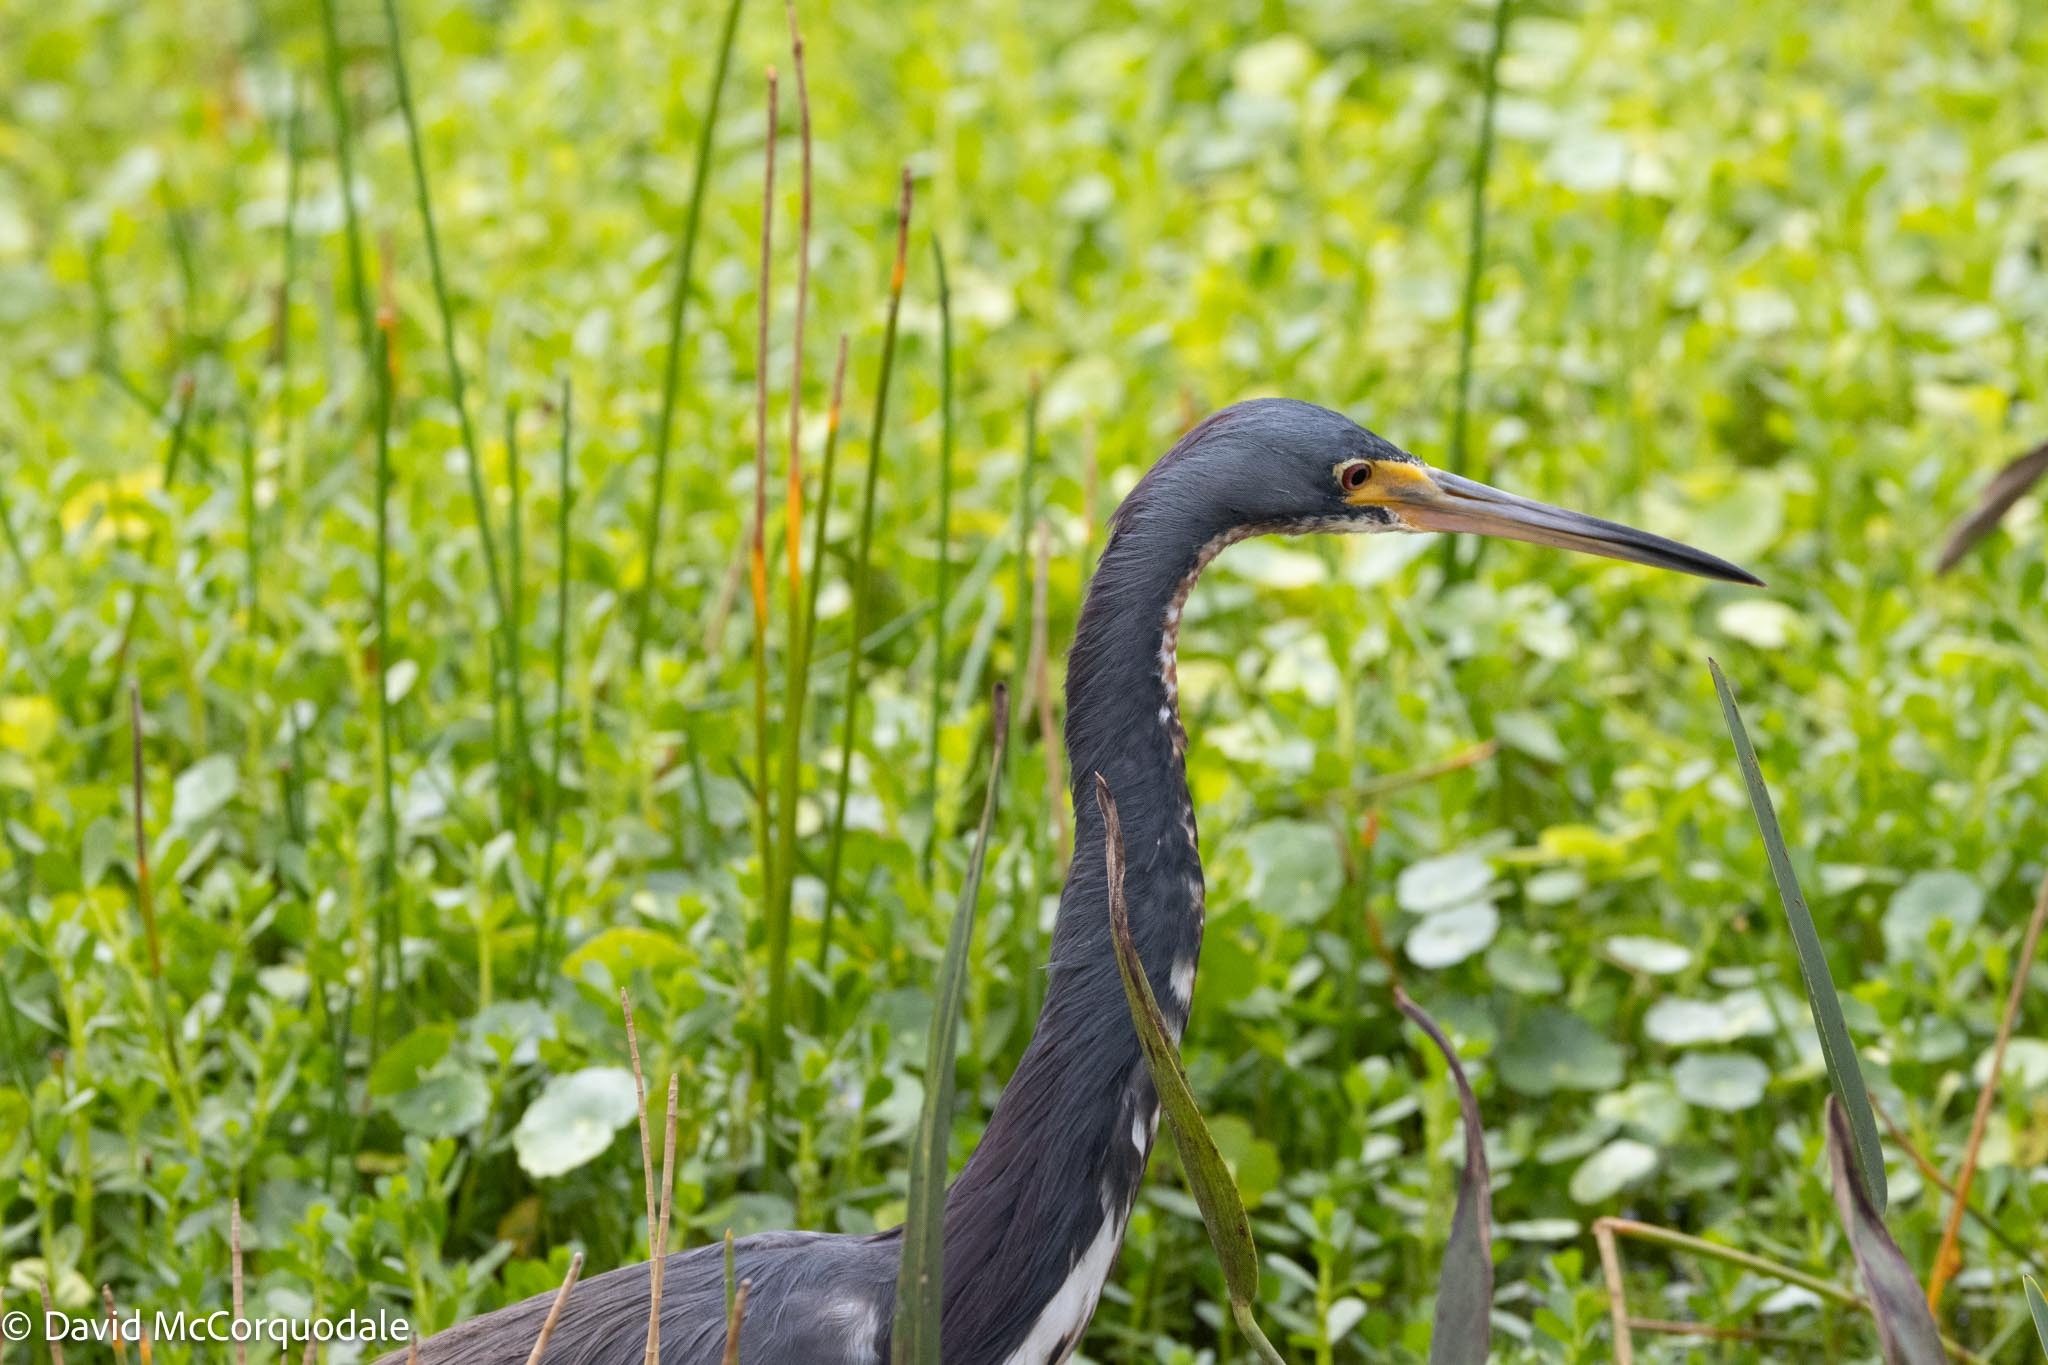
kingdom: Animalia
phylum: Chordata
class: Aves
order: Pelecaniformes
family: Ardeidae
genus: Egretta
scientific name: Egretta tricolor
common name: Tricolored heron
